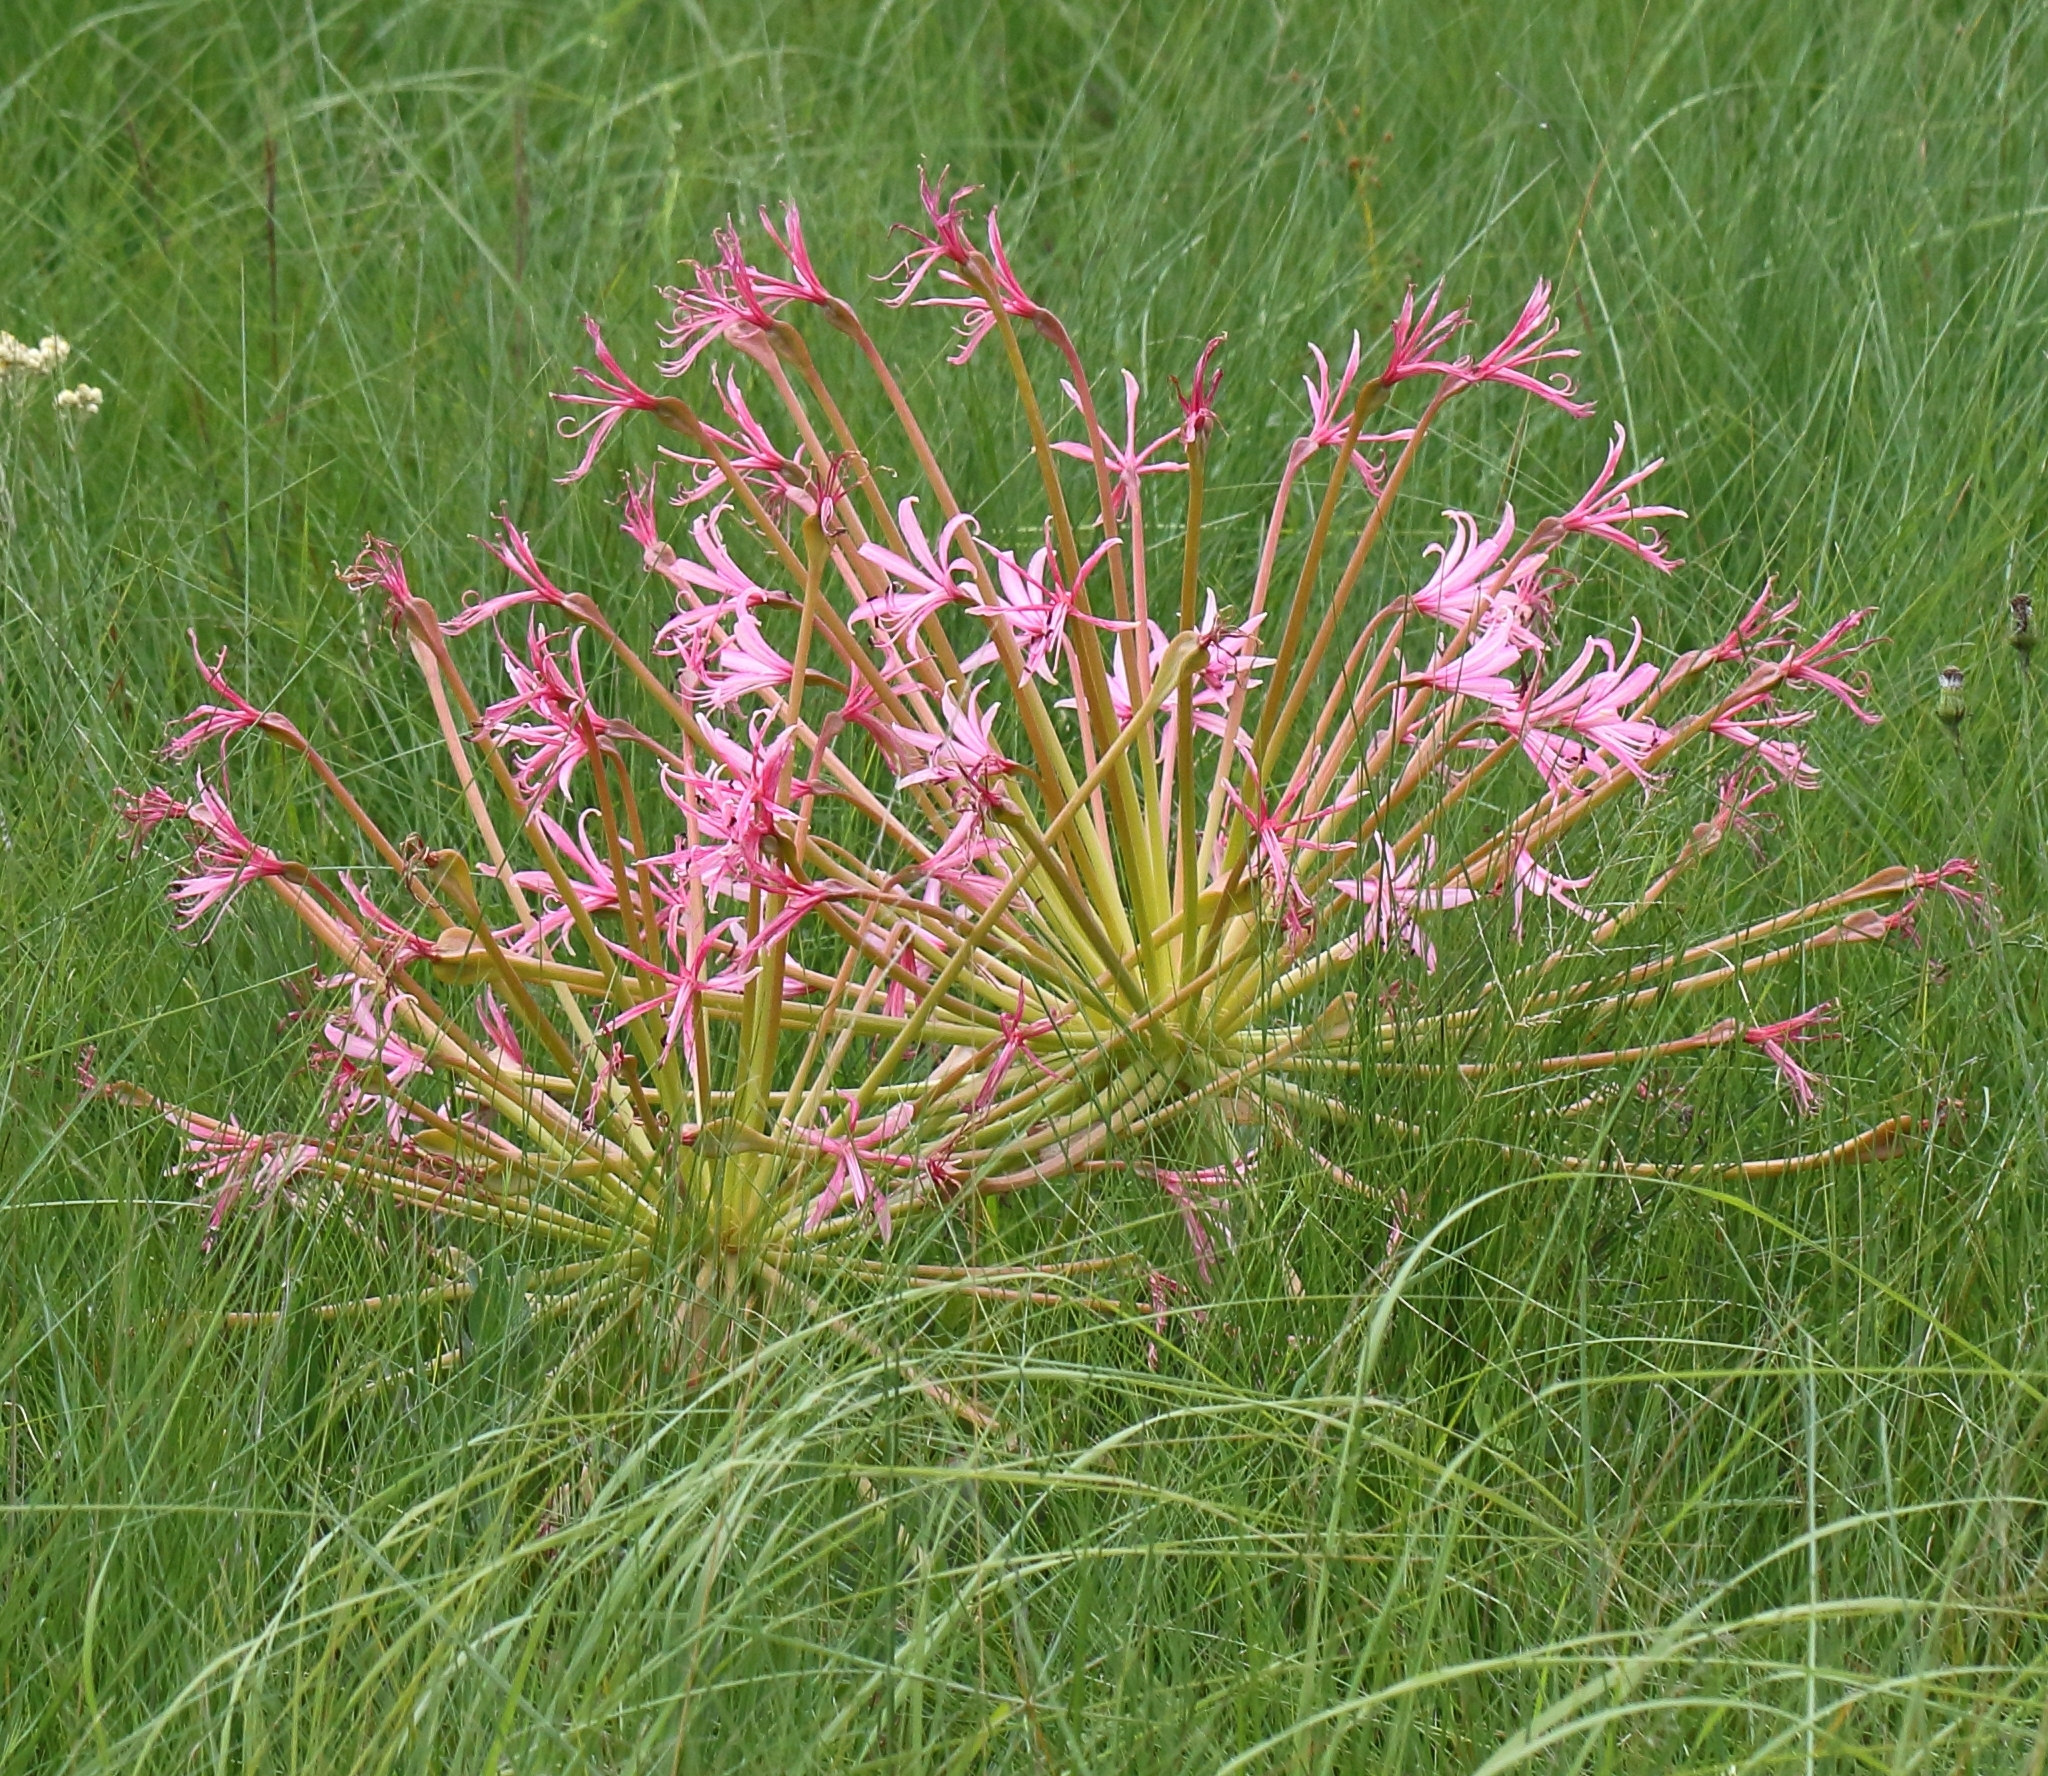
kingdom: Plantae
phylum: Tracheophyta
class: Liliopsida
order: Asparagales
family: Amaryllidaceae
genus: Brunsvigia
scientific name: Brunsvigia radulosa
